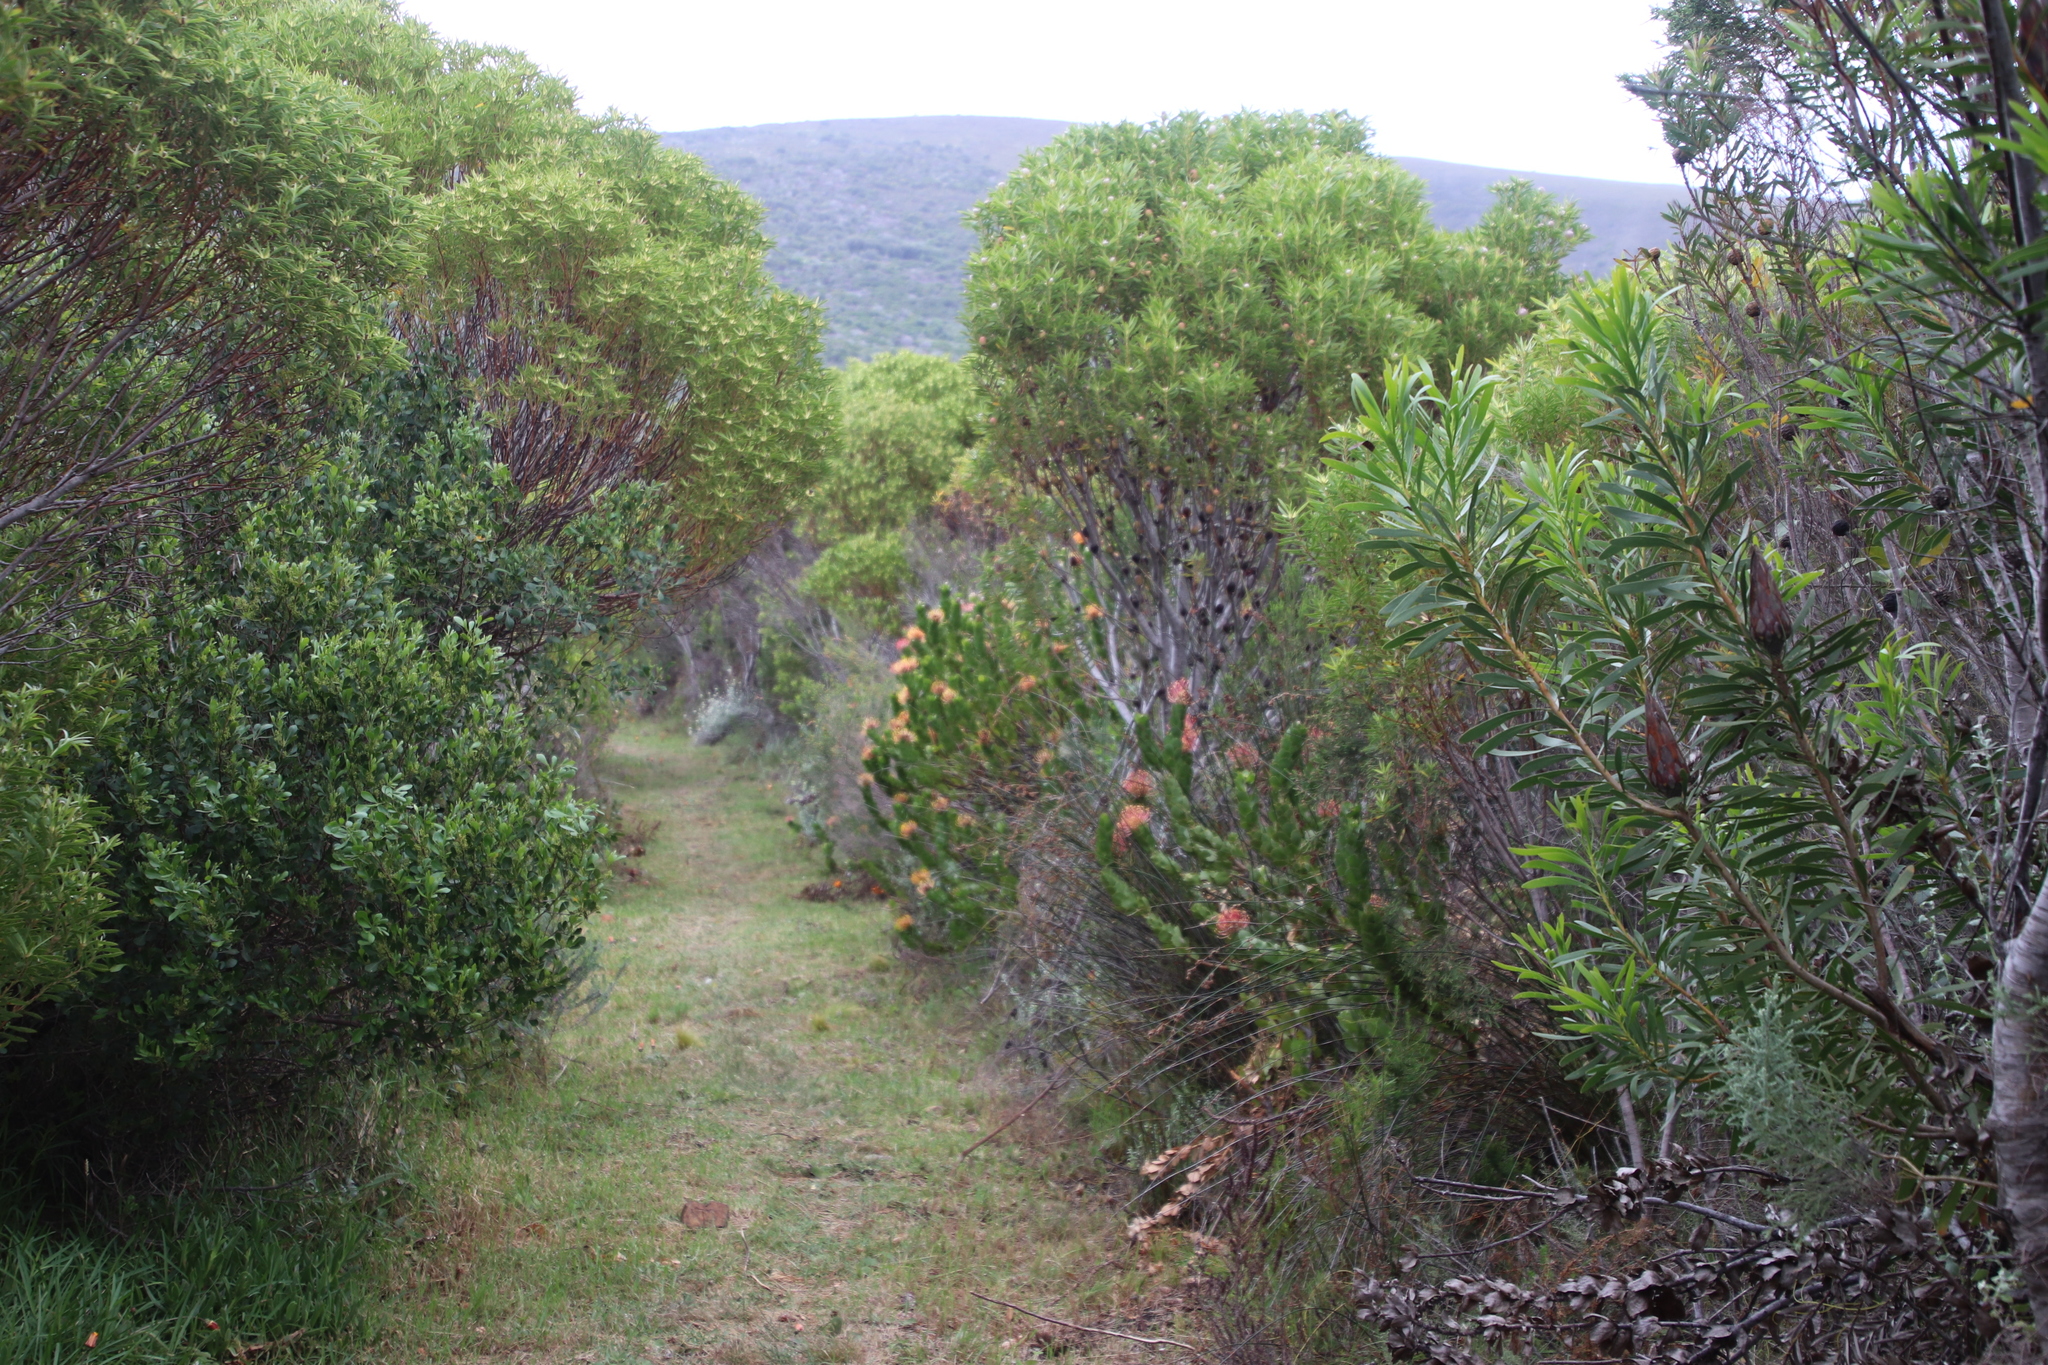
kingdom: Plantae
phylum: Tracheophyta
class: Magnoliopsida
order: Proteales
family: Proteaceae
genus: Leucadendron
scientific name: Leucadendron coniferum
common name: Dune conebush
